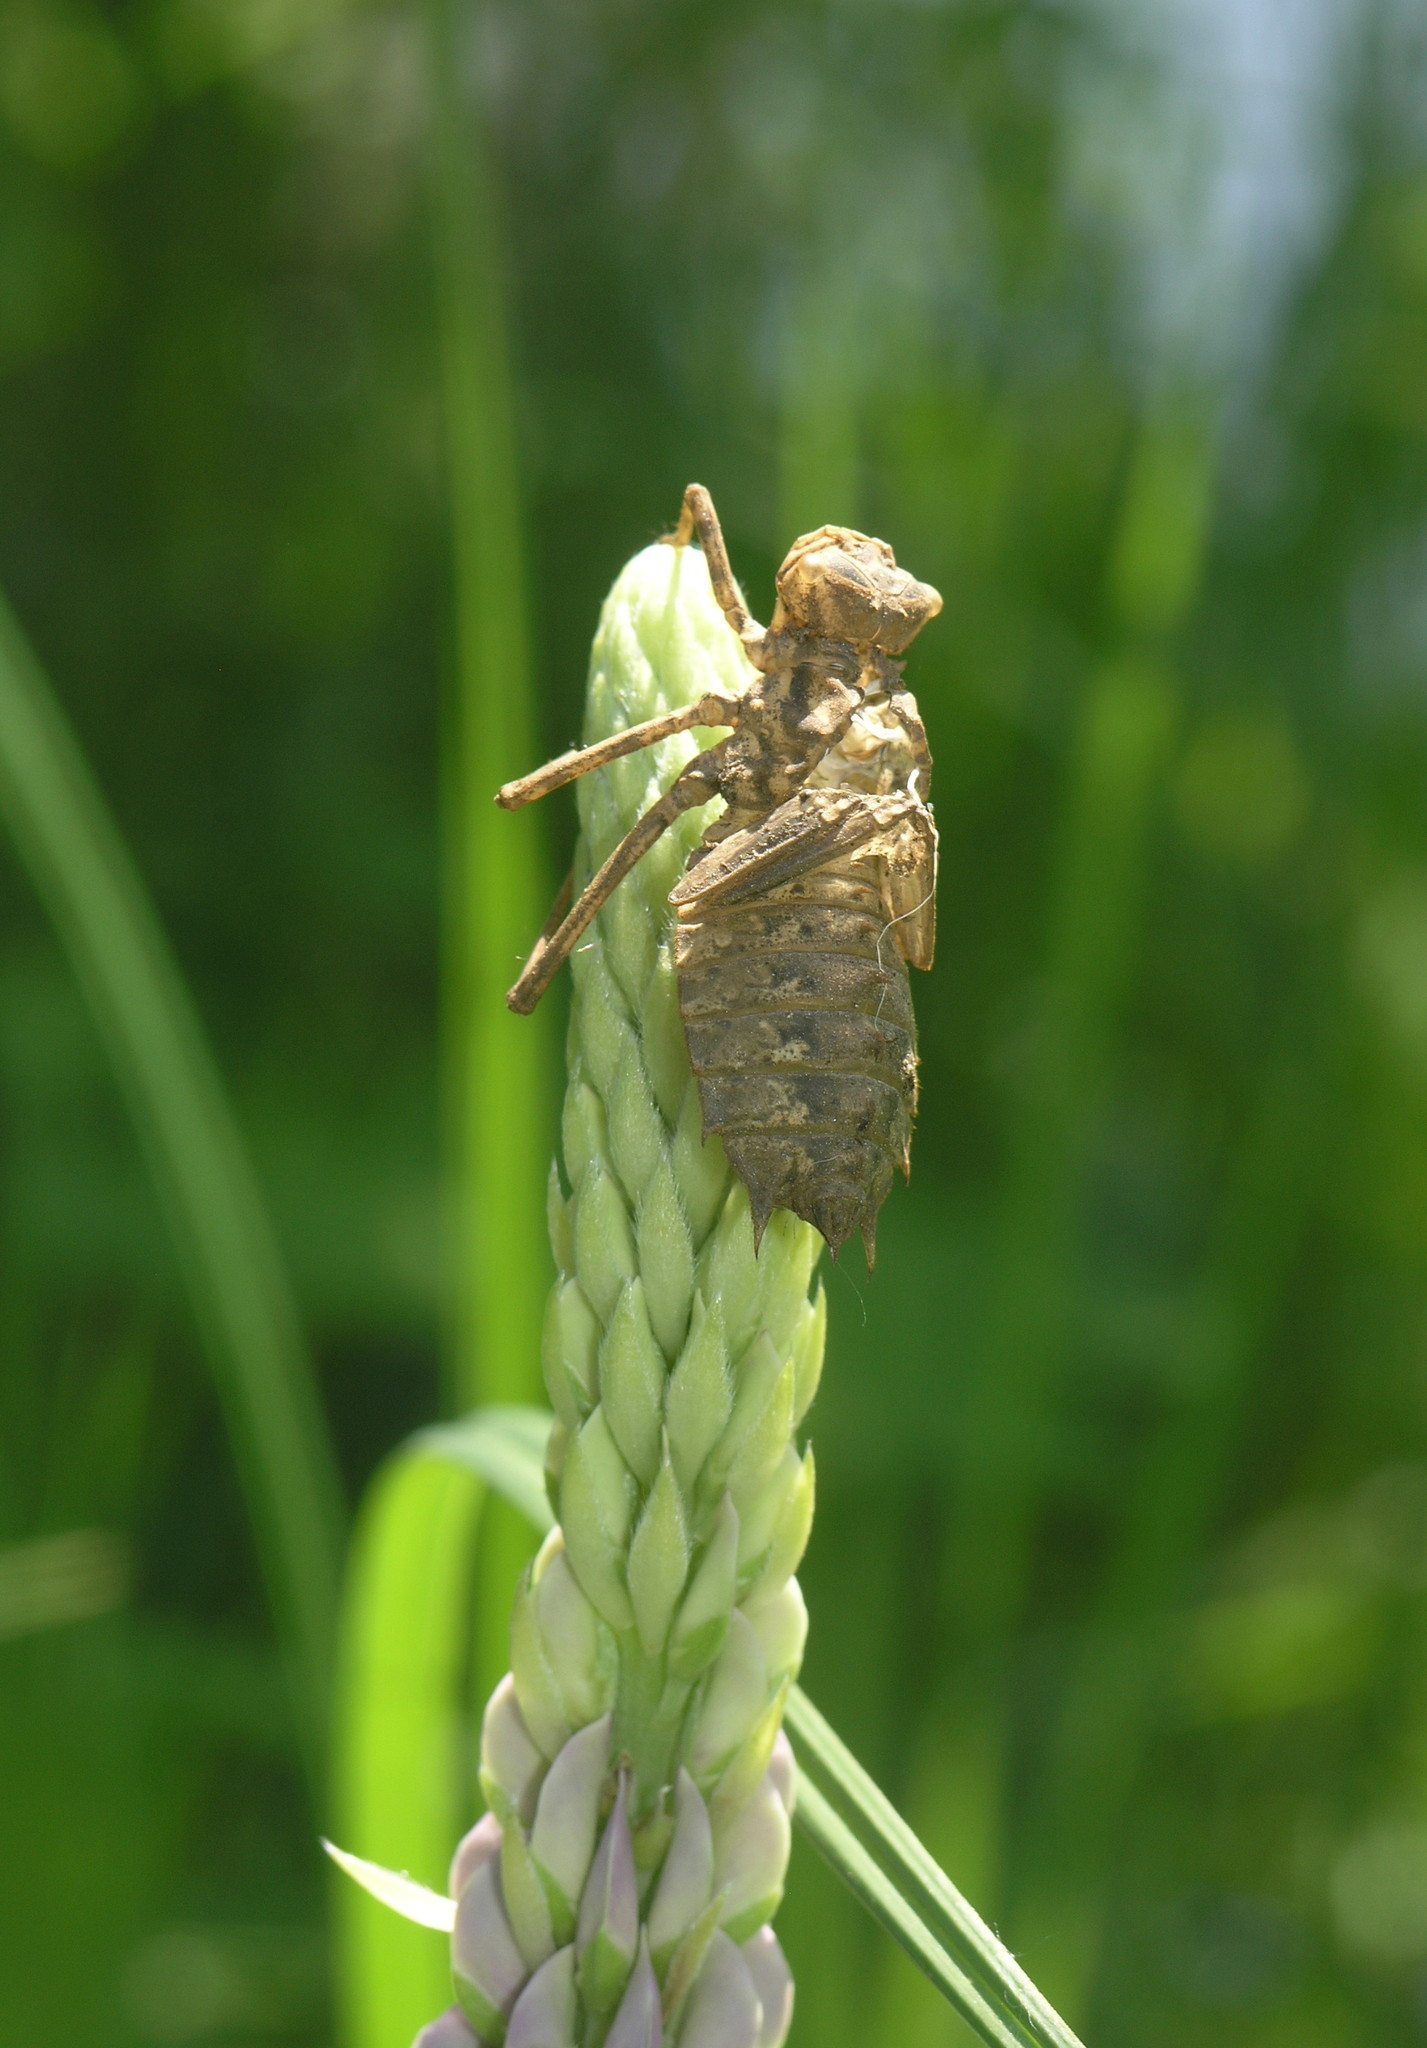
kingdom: Animalia
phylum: Arthropoda
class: Insecta
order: Odonata
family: Corduliidae
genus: Epitheca
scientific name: Epitheca bimaculata
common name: Eurasian baskettail
